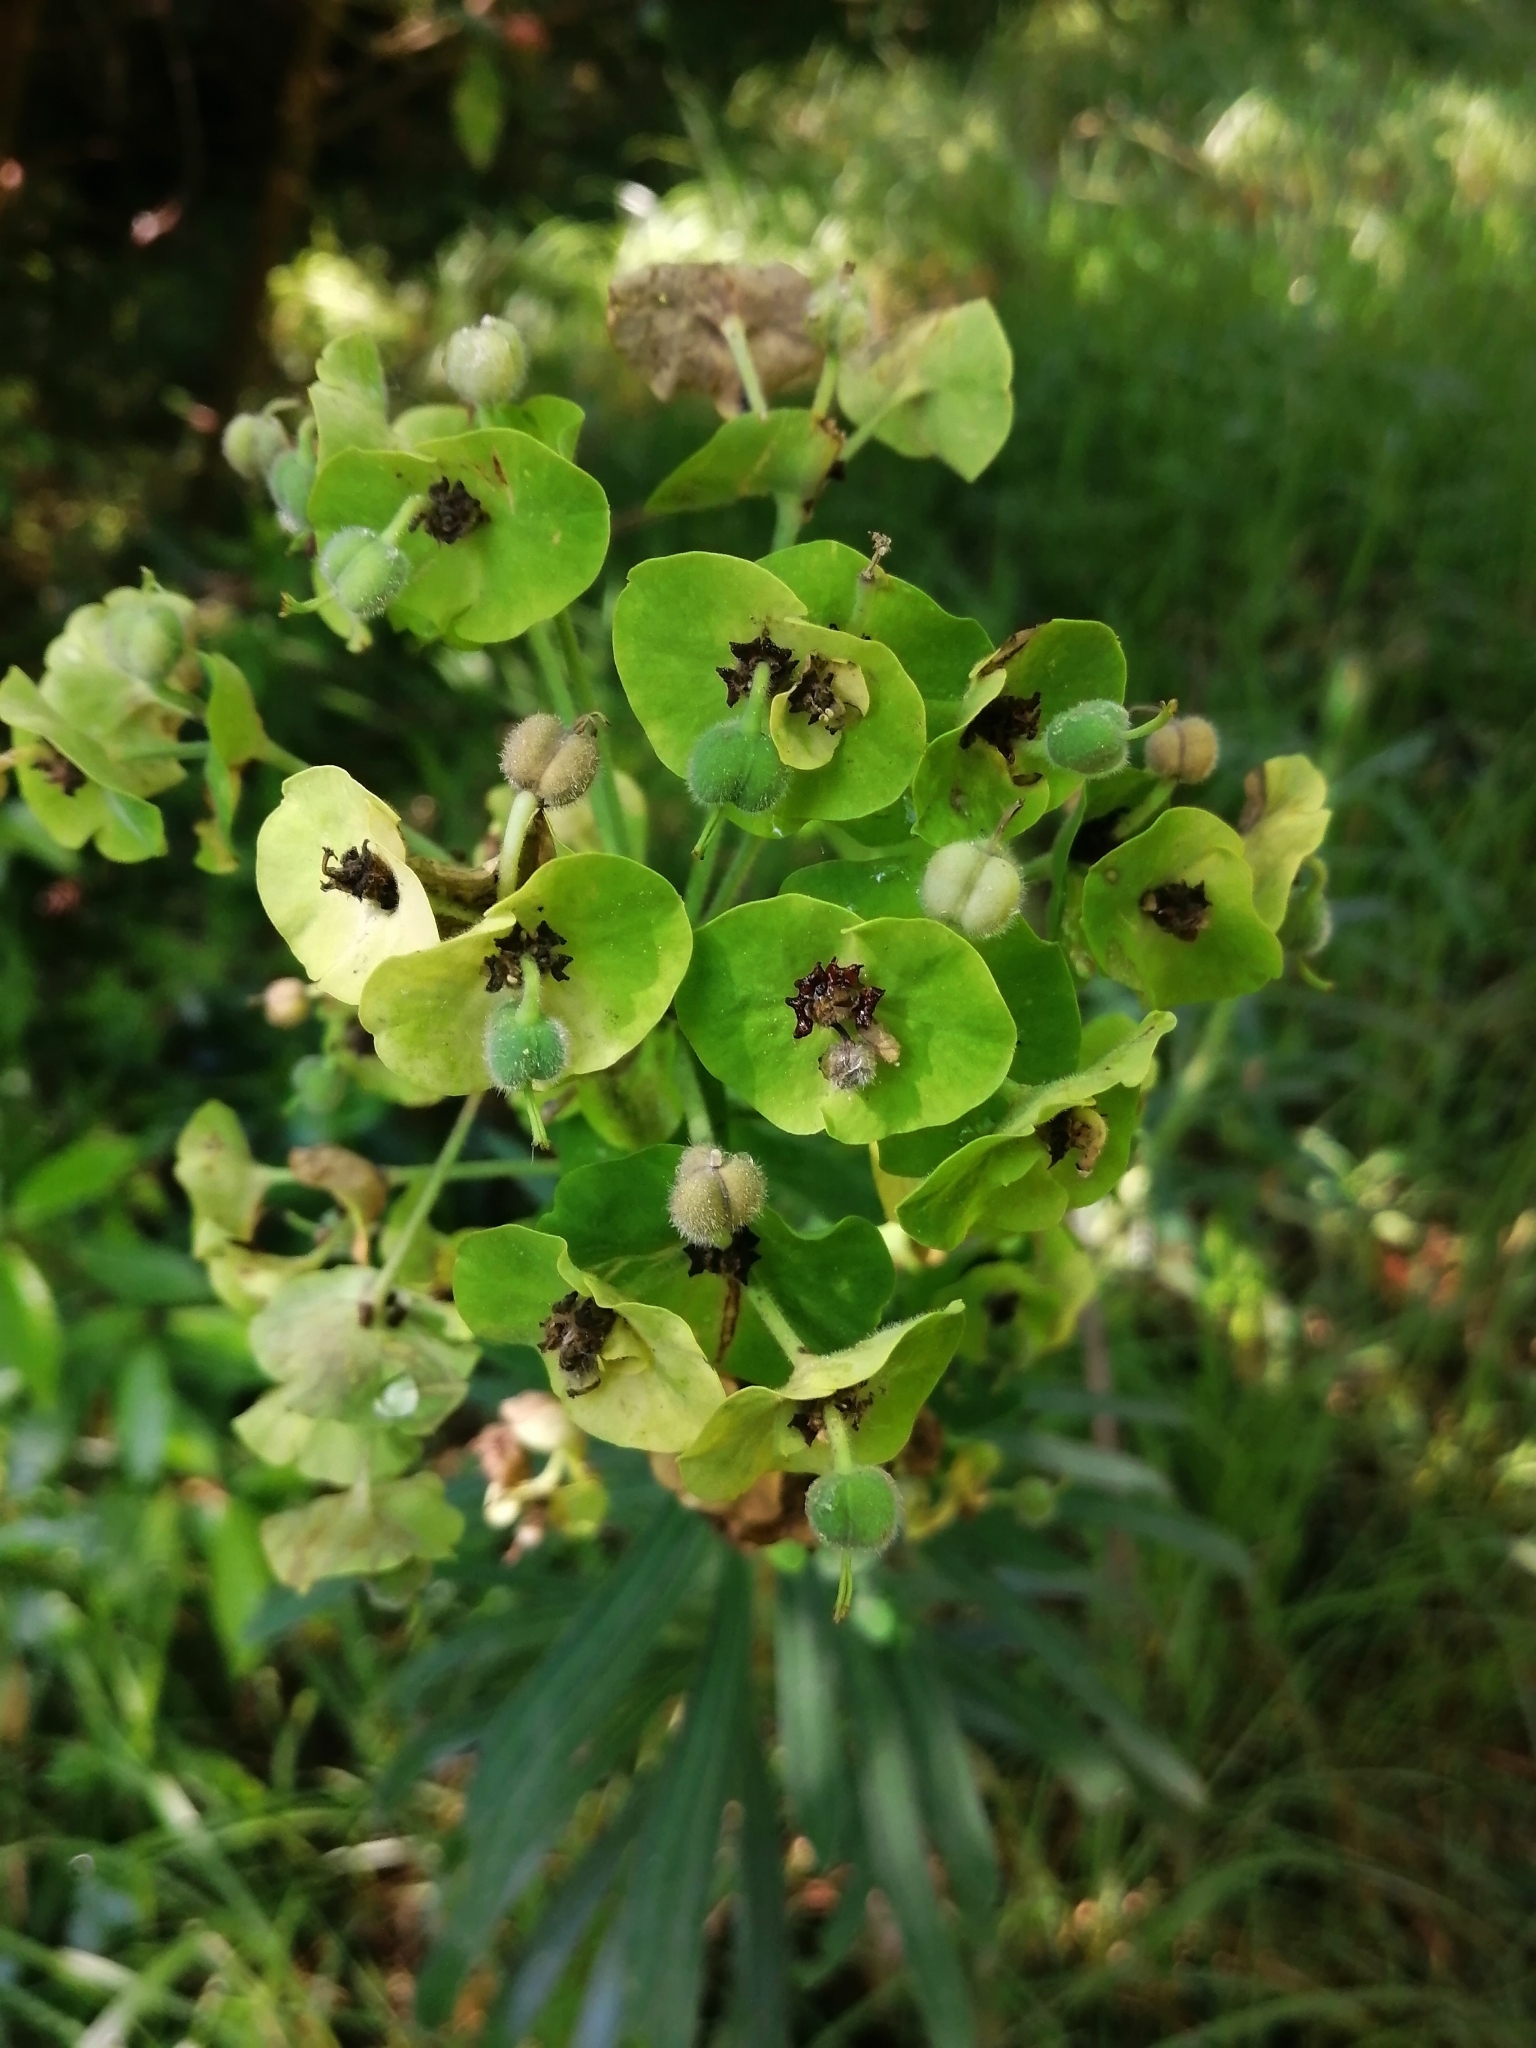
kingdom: Plantae
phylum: Tracheophyta
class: Magnoliopsida
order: Malpighiales
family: Euphorbiaceae
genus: Euphorbia
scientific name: Euphorbia characias
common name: Mediterranean spurge
